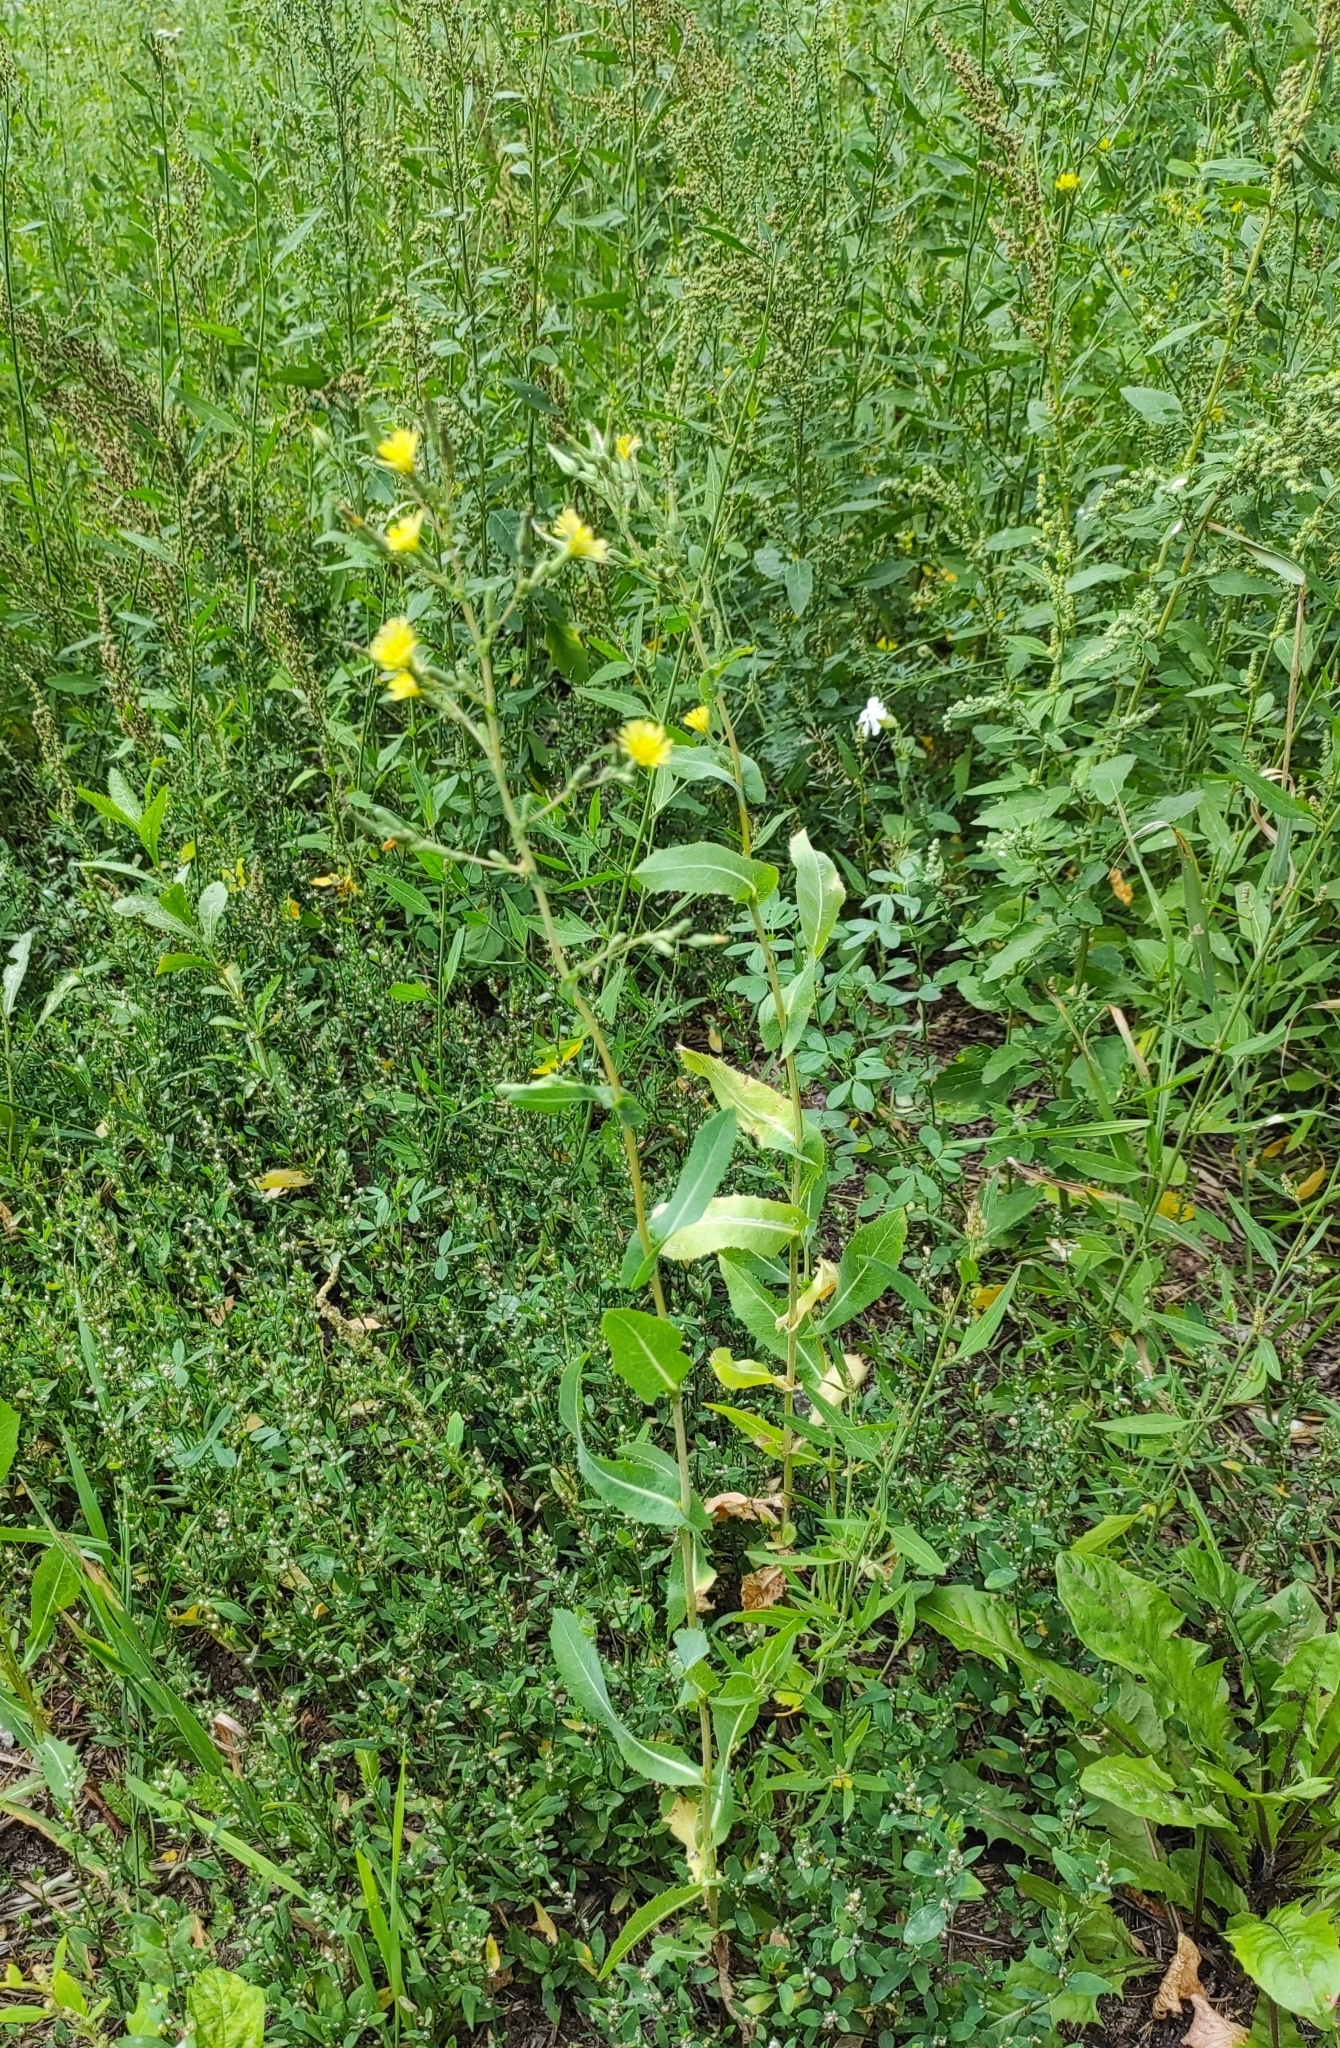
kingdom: Plantae
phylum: Tracheophyta
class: Magnoliopsida
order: Asterales
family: Asteraceae
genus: Lactuca
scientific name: Lactuca serriola
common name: Prickly lettuce
